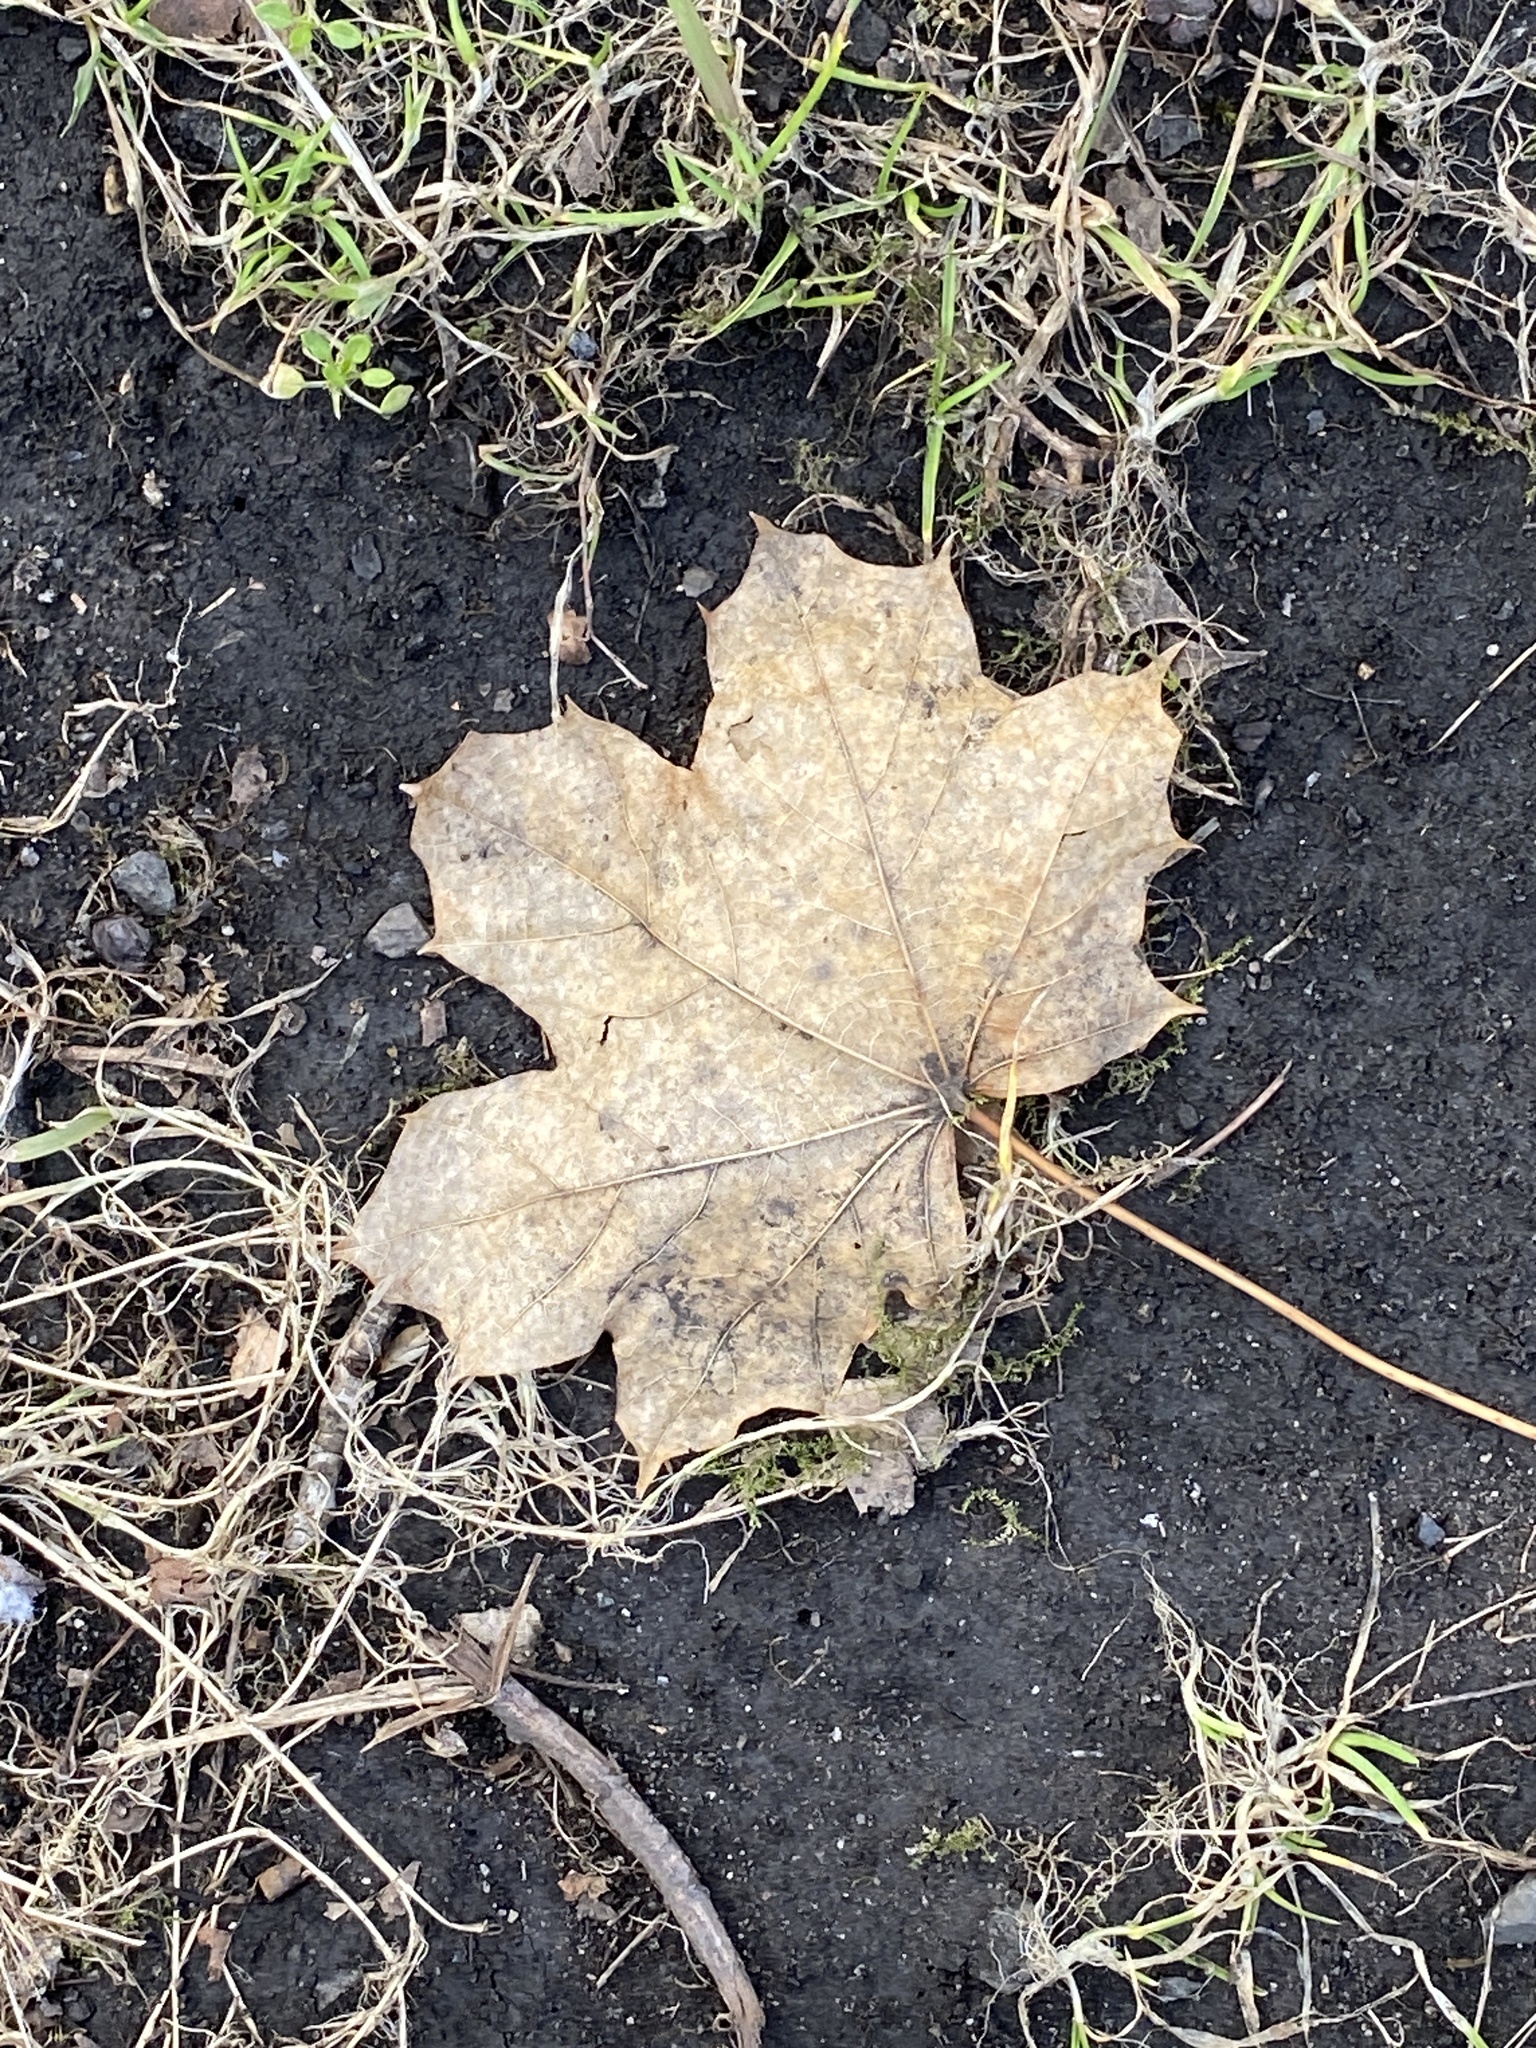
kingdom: Plantae
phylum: Tracheophyta
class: Magnoliopsida
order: Sapindales
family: Sapindaceae
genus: Acer
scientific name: Acer platanoides
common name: Norway maple
